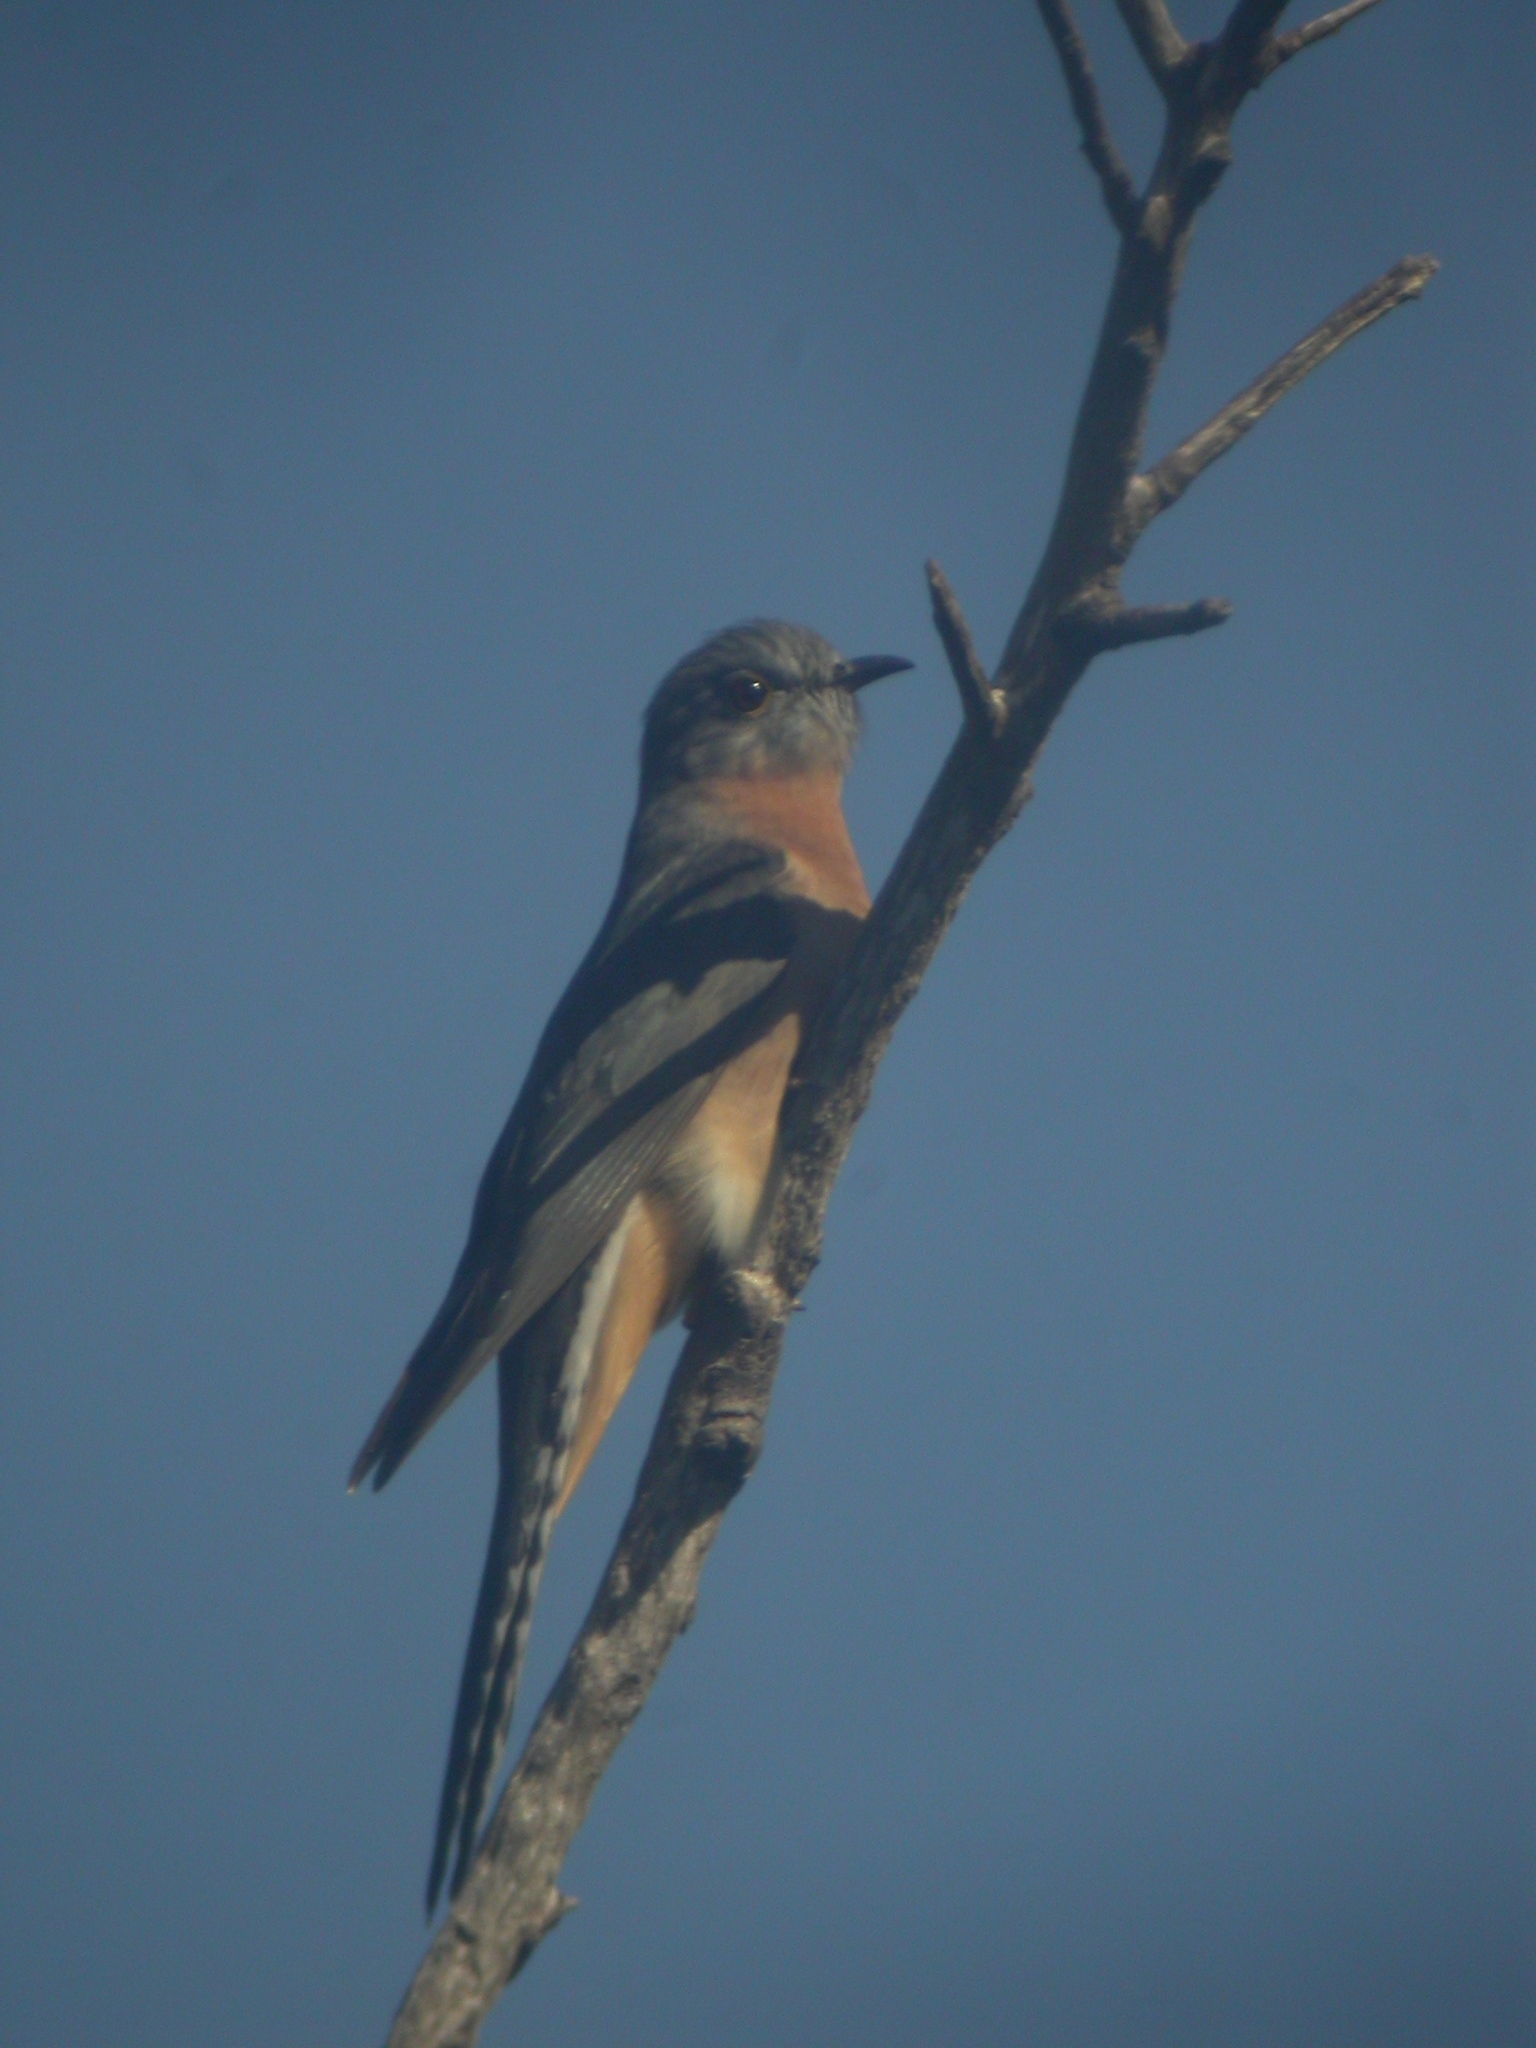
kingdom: Animalia
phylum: Chordata
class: Aves
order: Cuculiformes
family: Cuculidae
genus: Cacomantis
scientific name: Cacomantis flabelliformis
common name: Fan-tailed cuckoo
